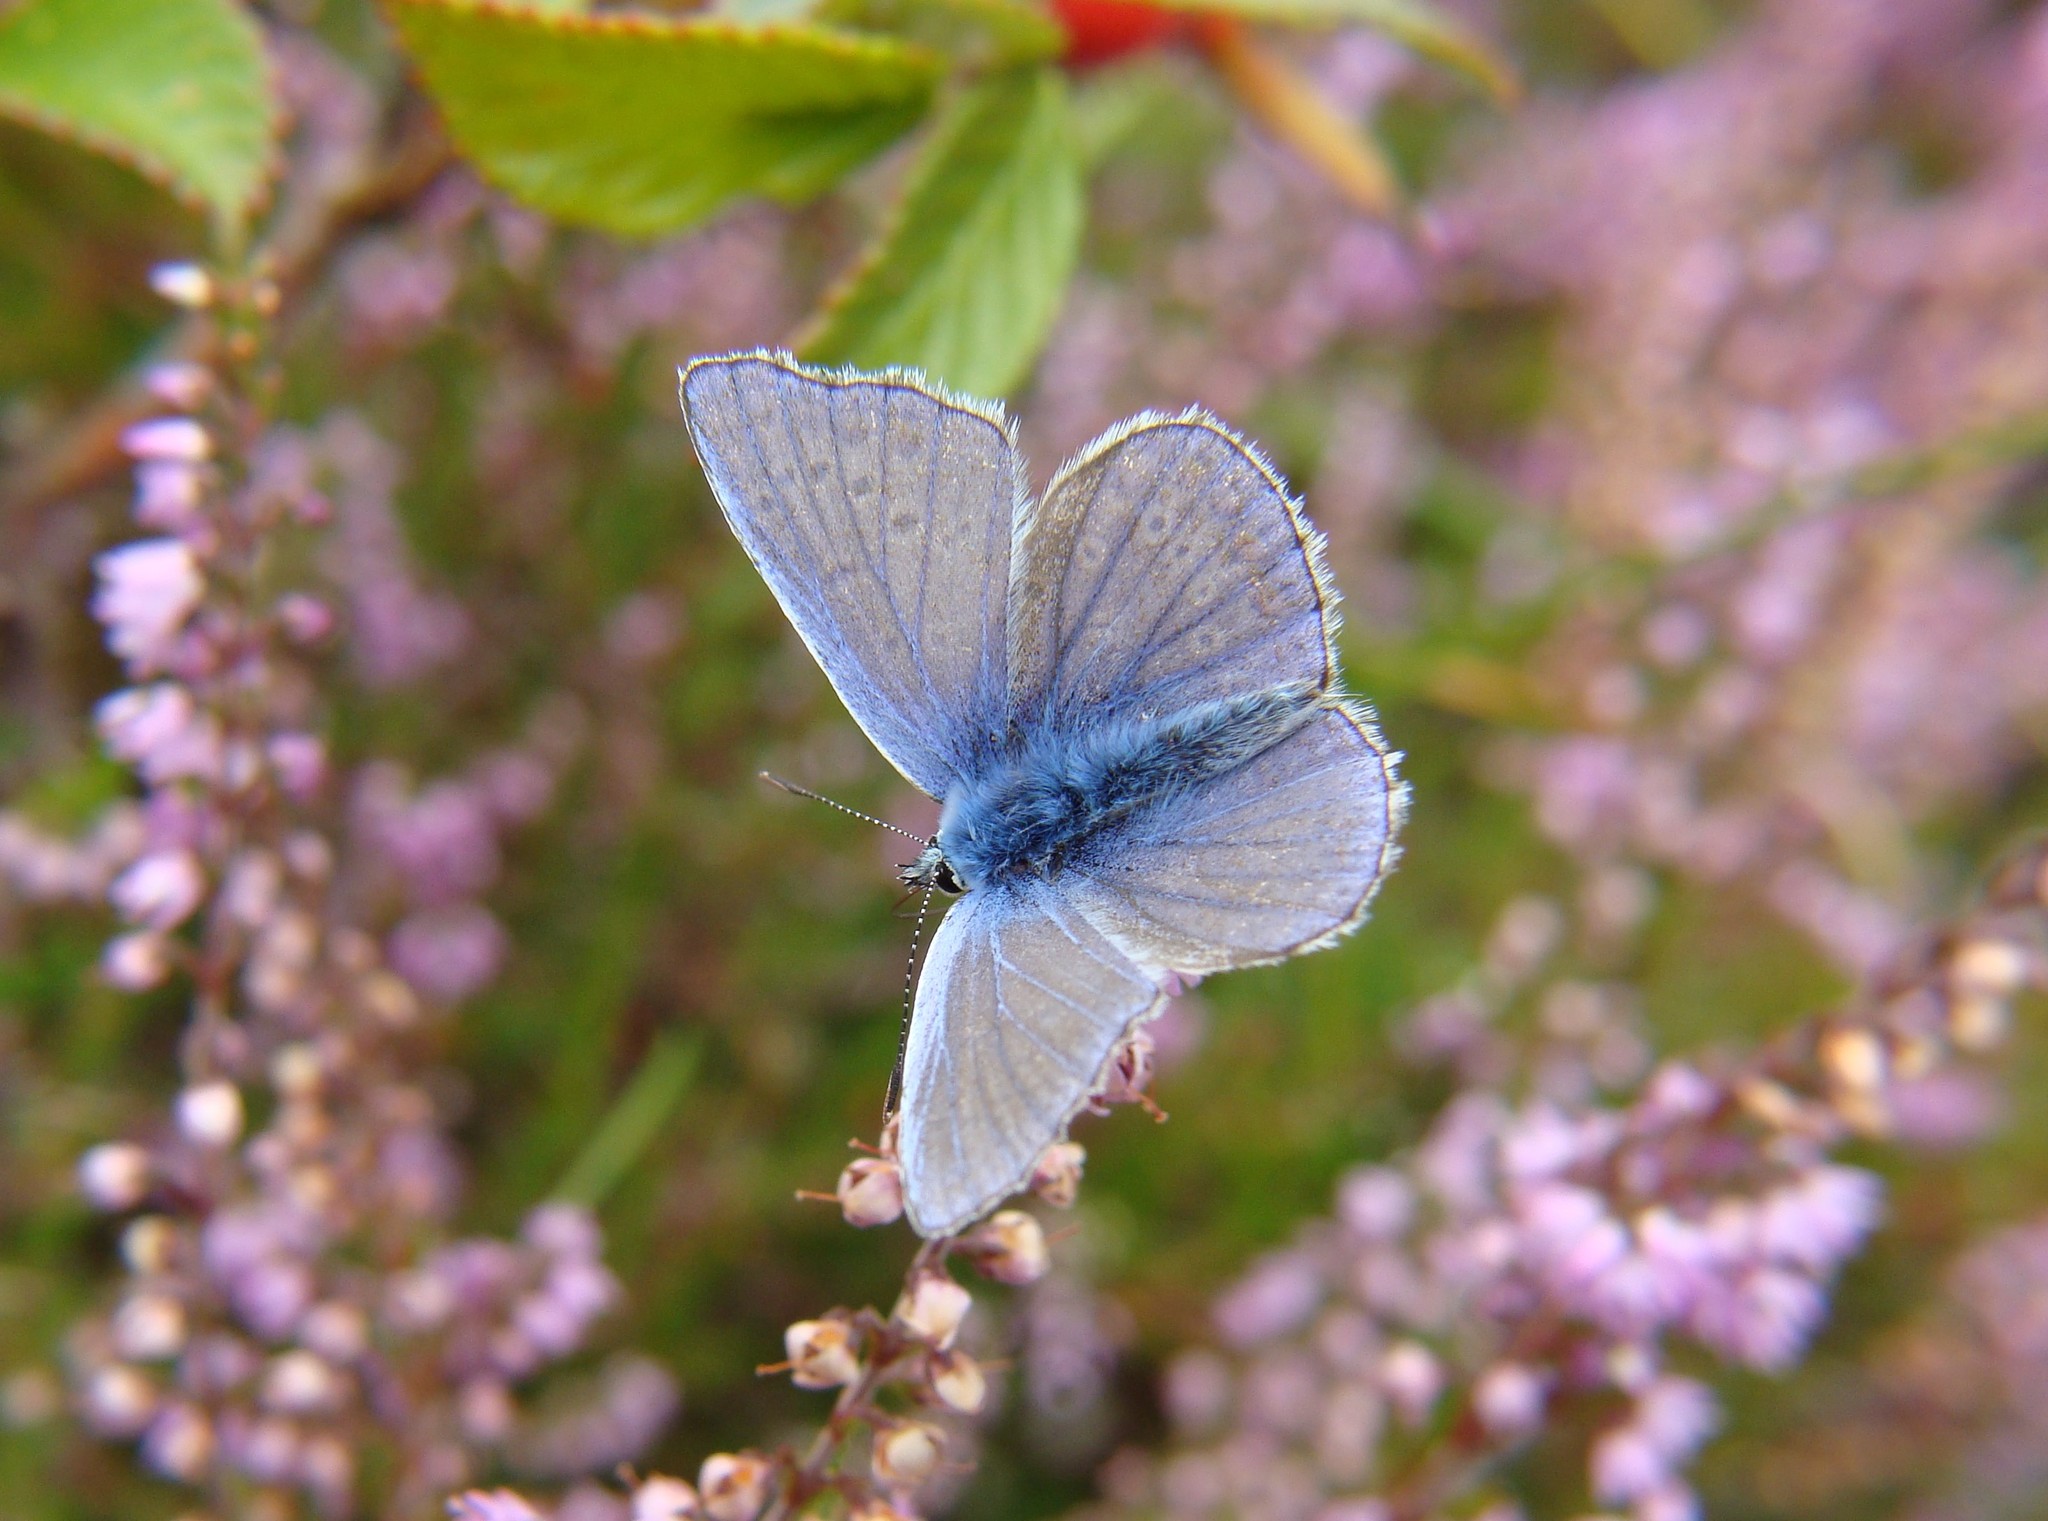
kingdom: Animalia
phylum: Arthropoda
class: Insecta
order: Lepidoptera
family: Lycaenidae
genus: Polyommatus
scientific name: Polyommatus icarus
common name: Common blue
